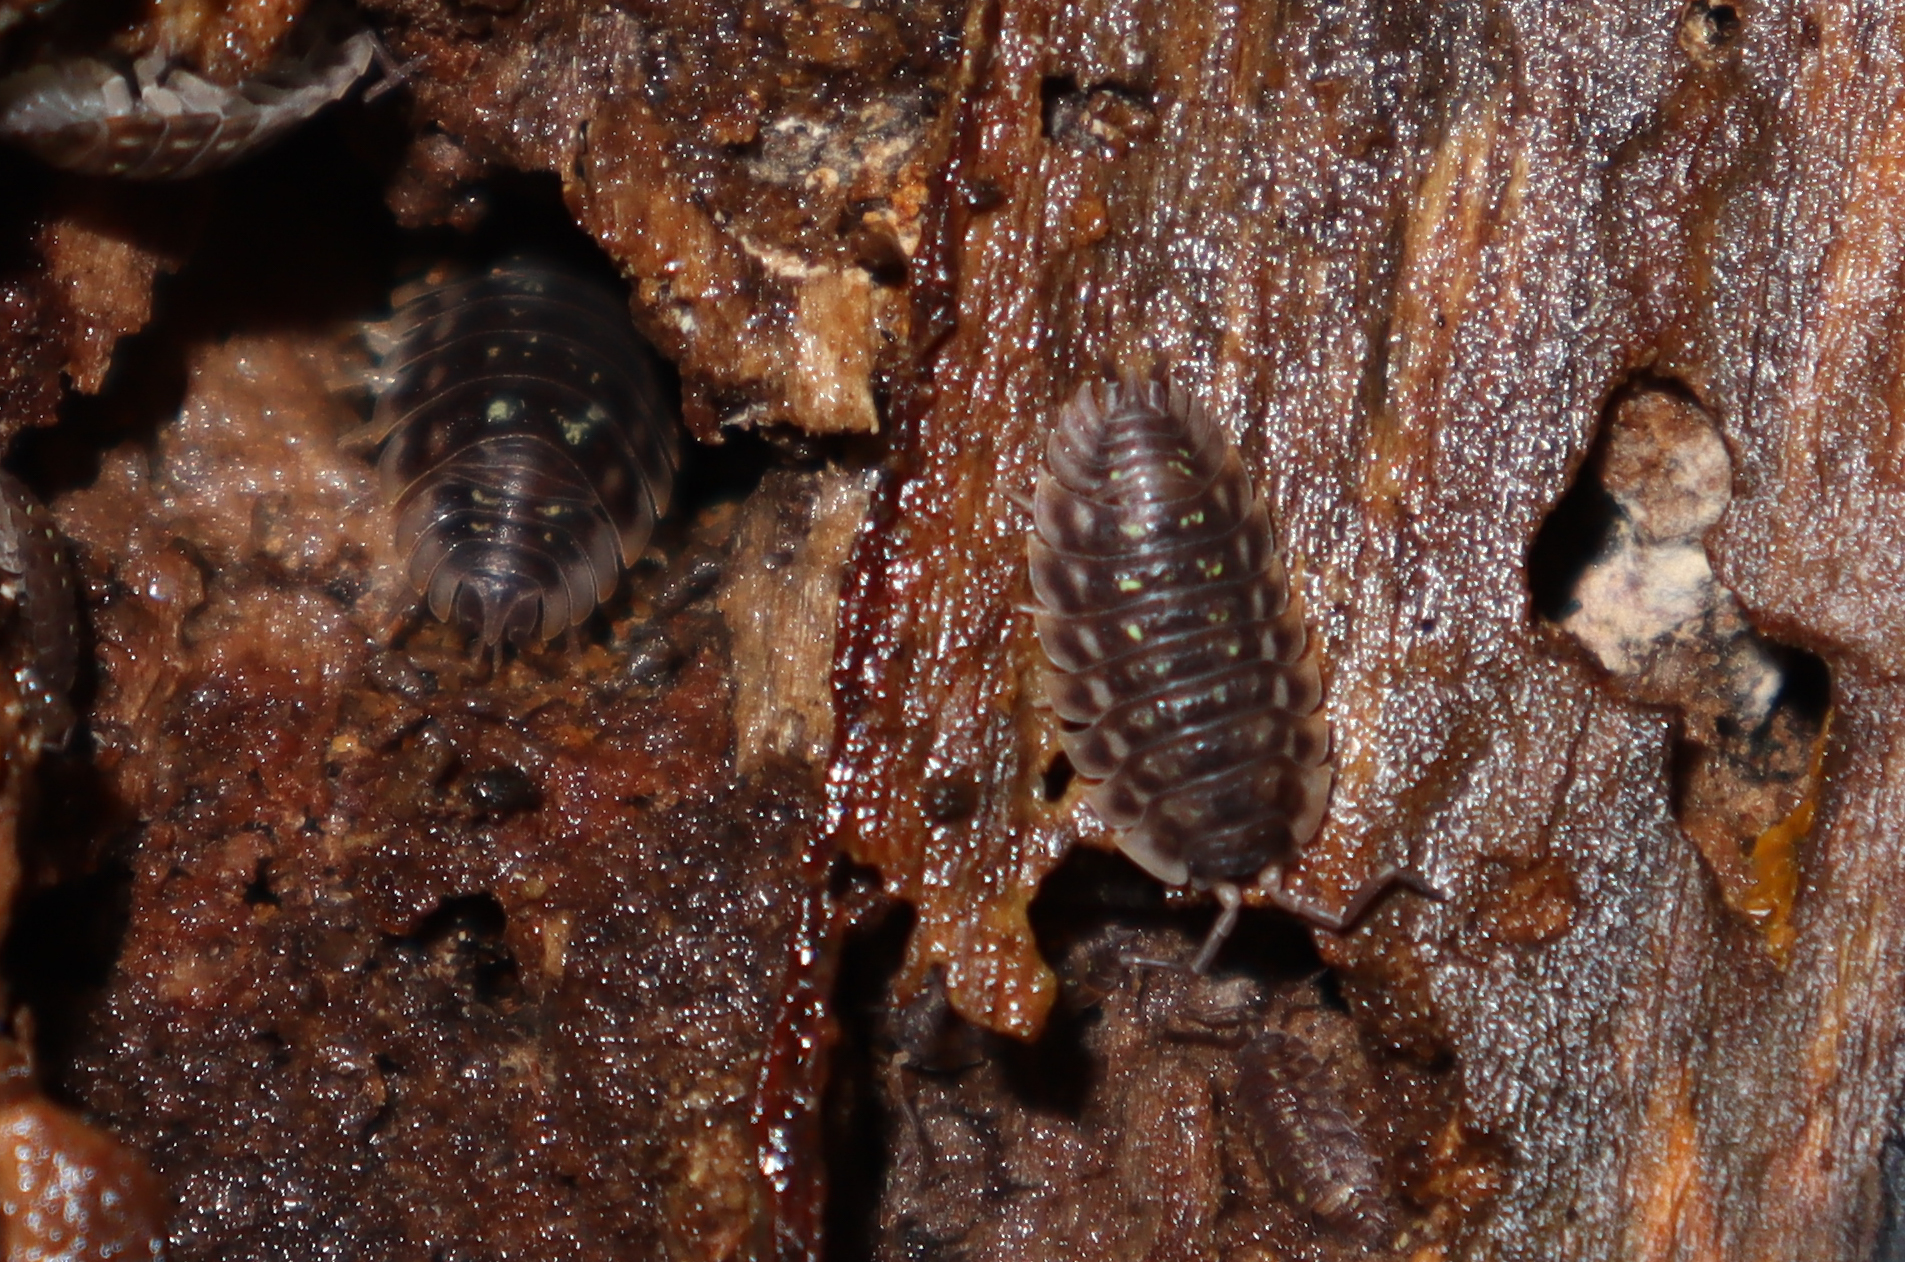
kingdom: Animalia
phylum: Arthropoda
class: Malacostraca
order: Isopoda
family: Oniscidae
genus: Oniscus
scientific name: Oniscus asellus
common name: Common shiny woodlouse
